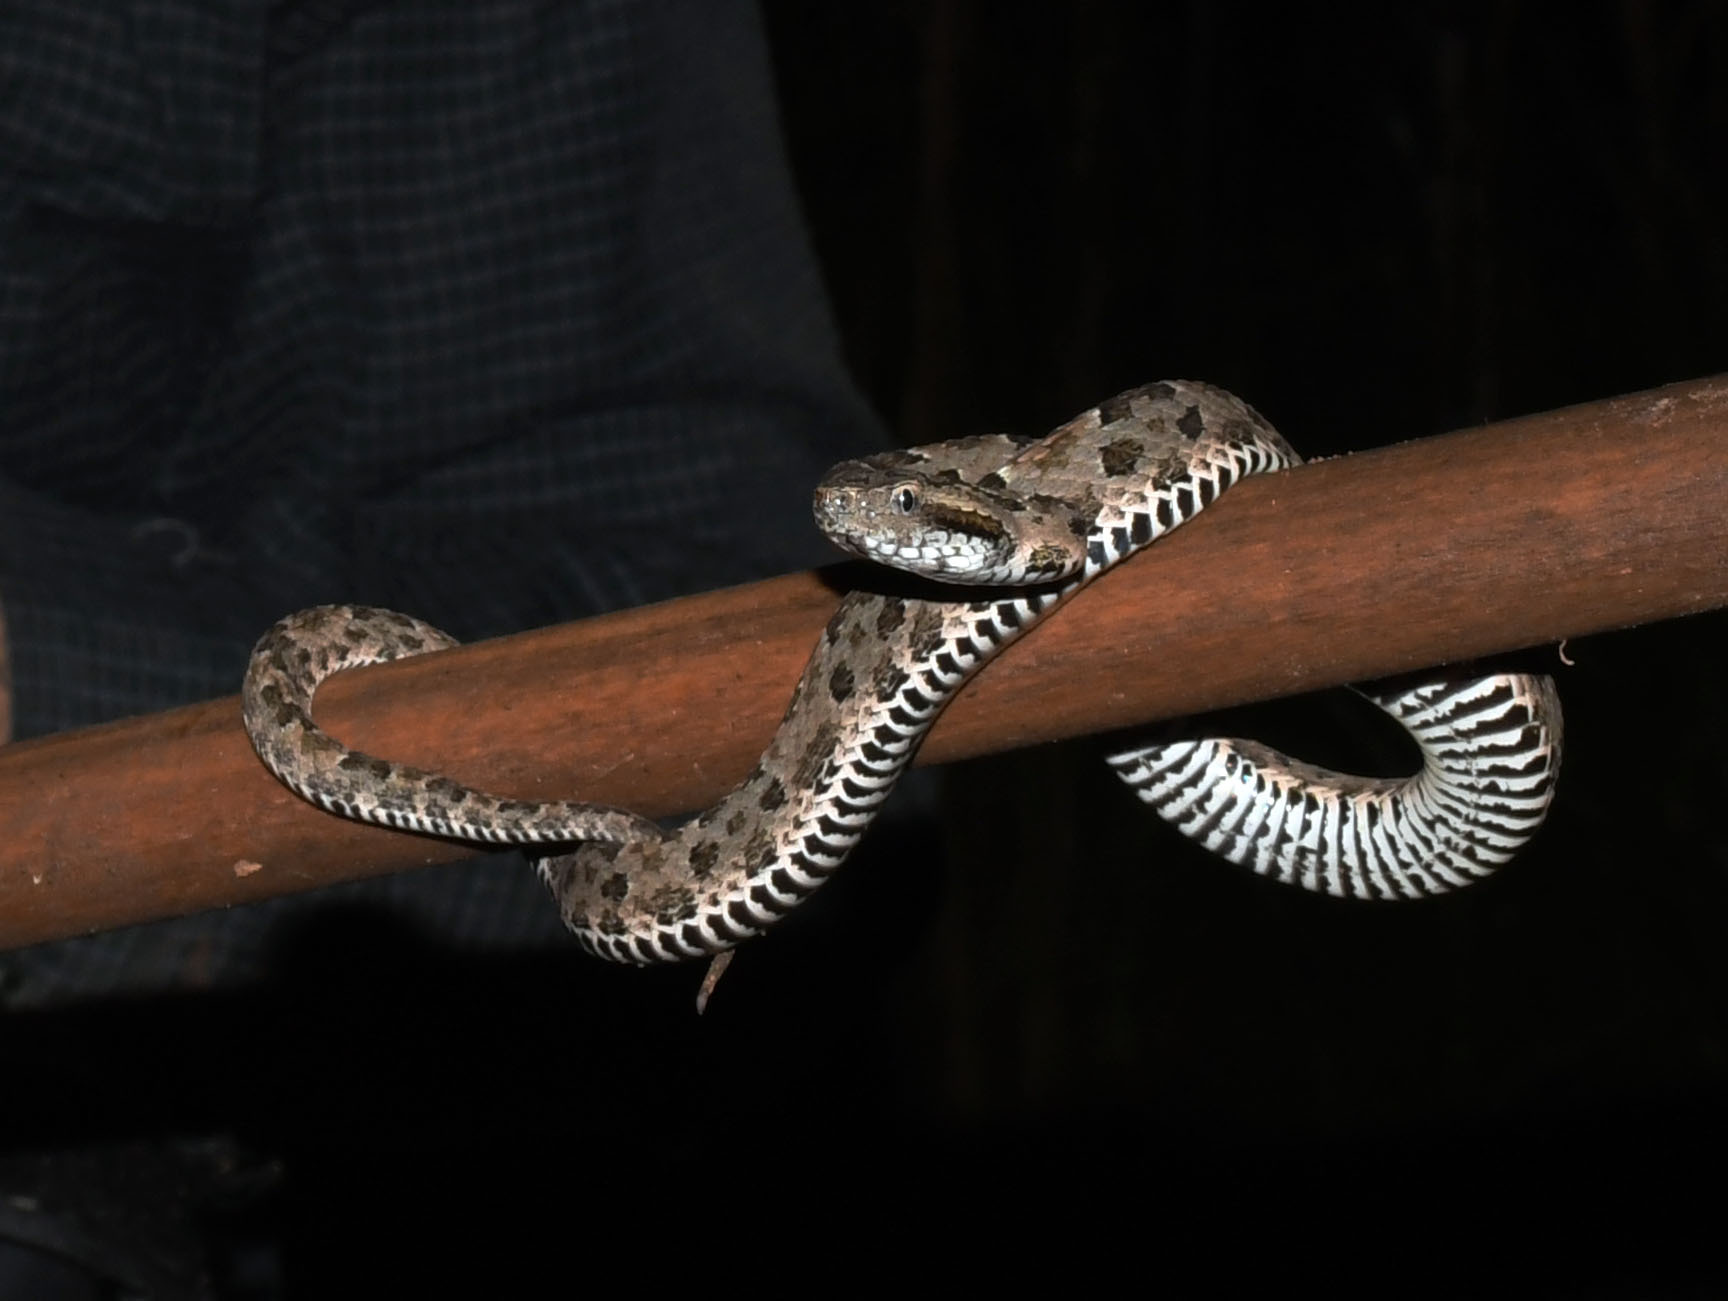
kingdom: Animalia
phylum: Chordata
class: Squamata
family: Viperidae
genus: Bothrops
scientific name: Bothrops mattogrossensis
